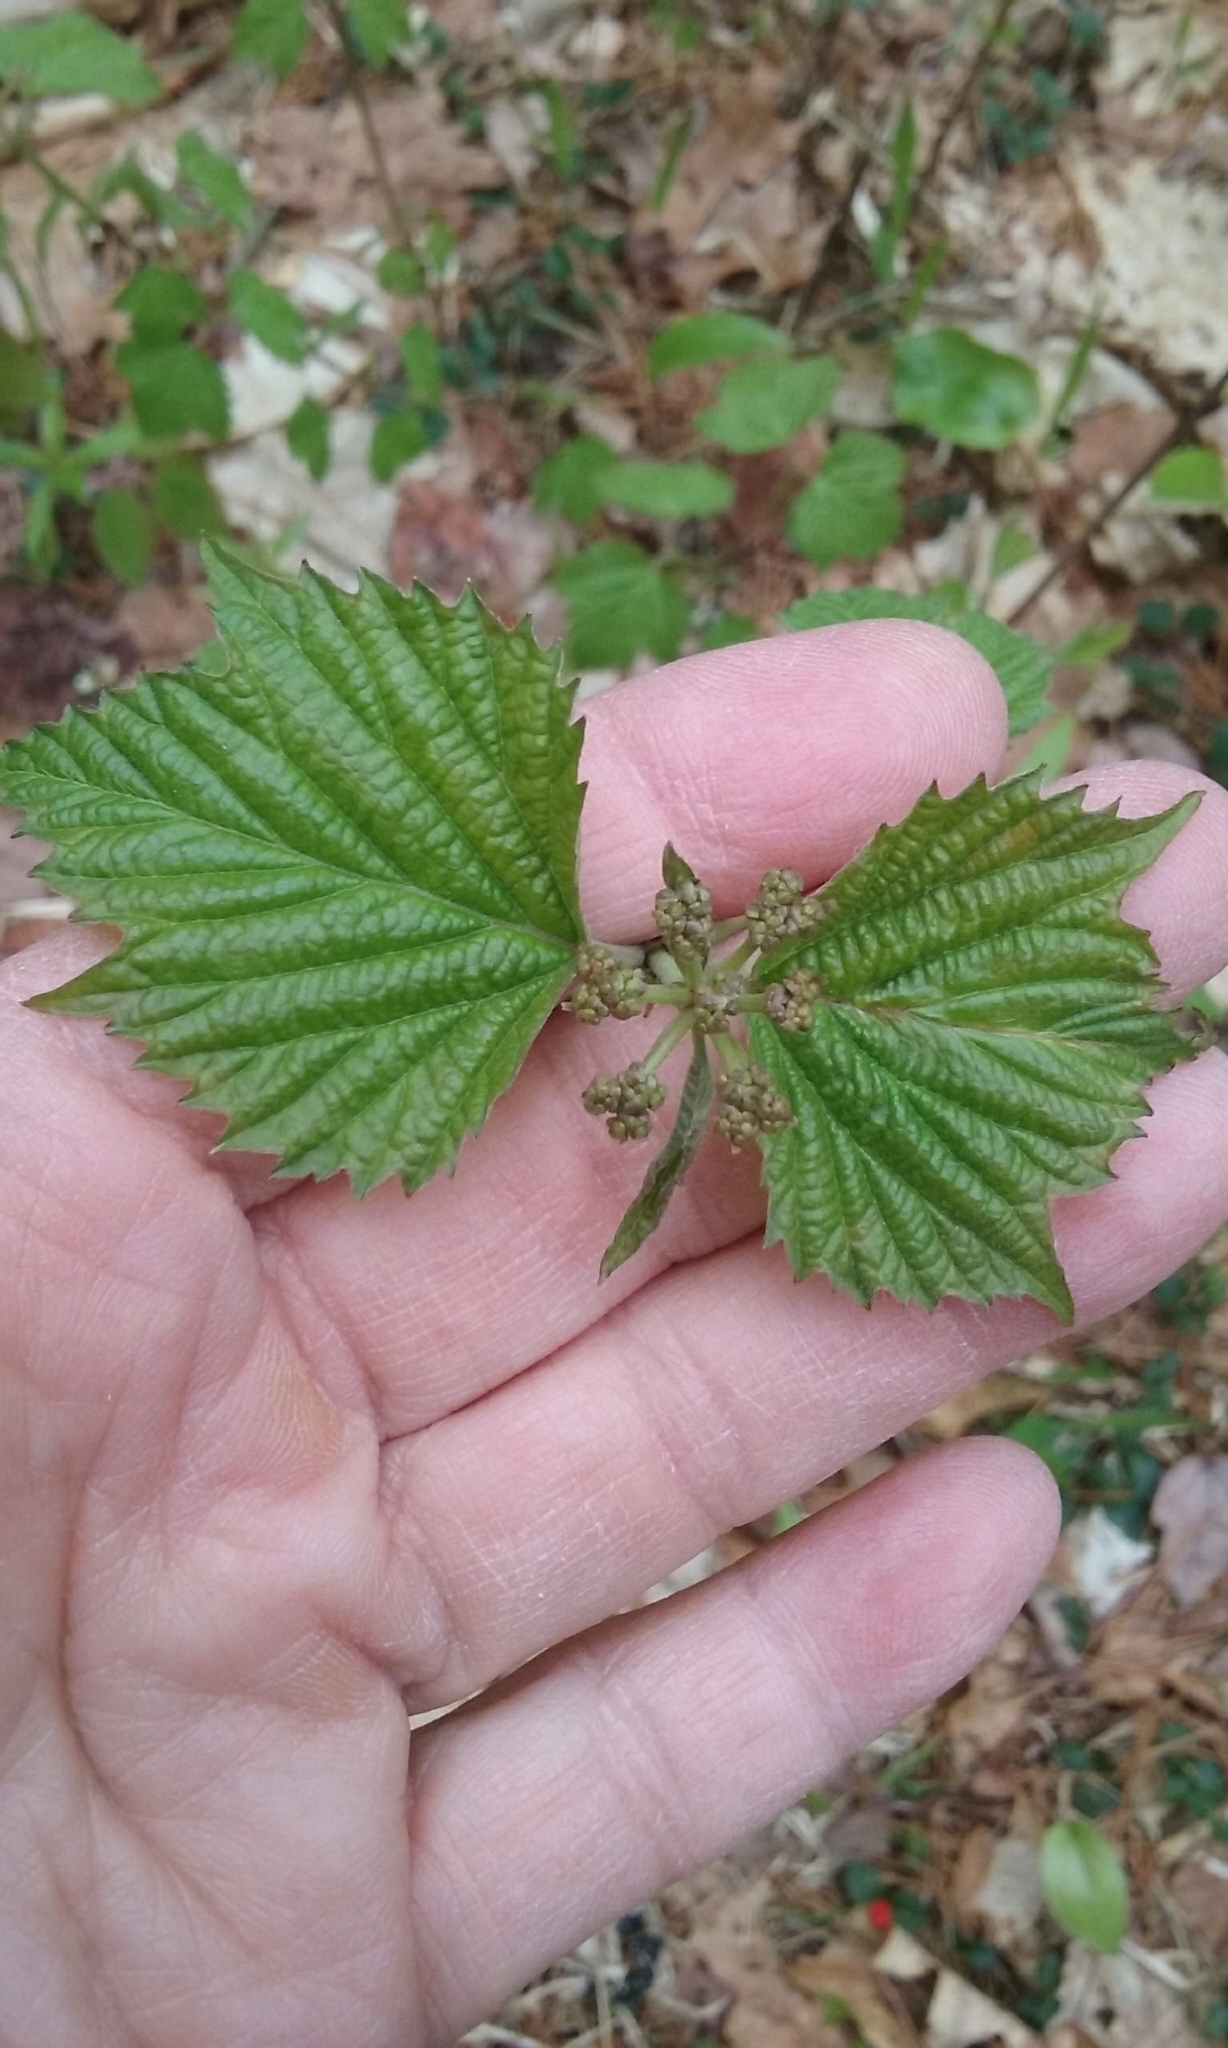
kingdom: Plantae
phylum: Tracheophyta
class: Magnoliopsida
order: Dipsacales
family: Viburnaceae
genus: Viburnum
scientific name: Viburnum acerifolium
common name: Dockmackie
